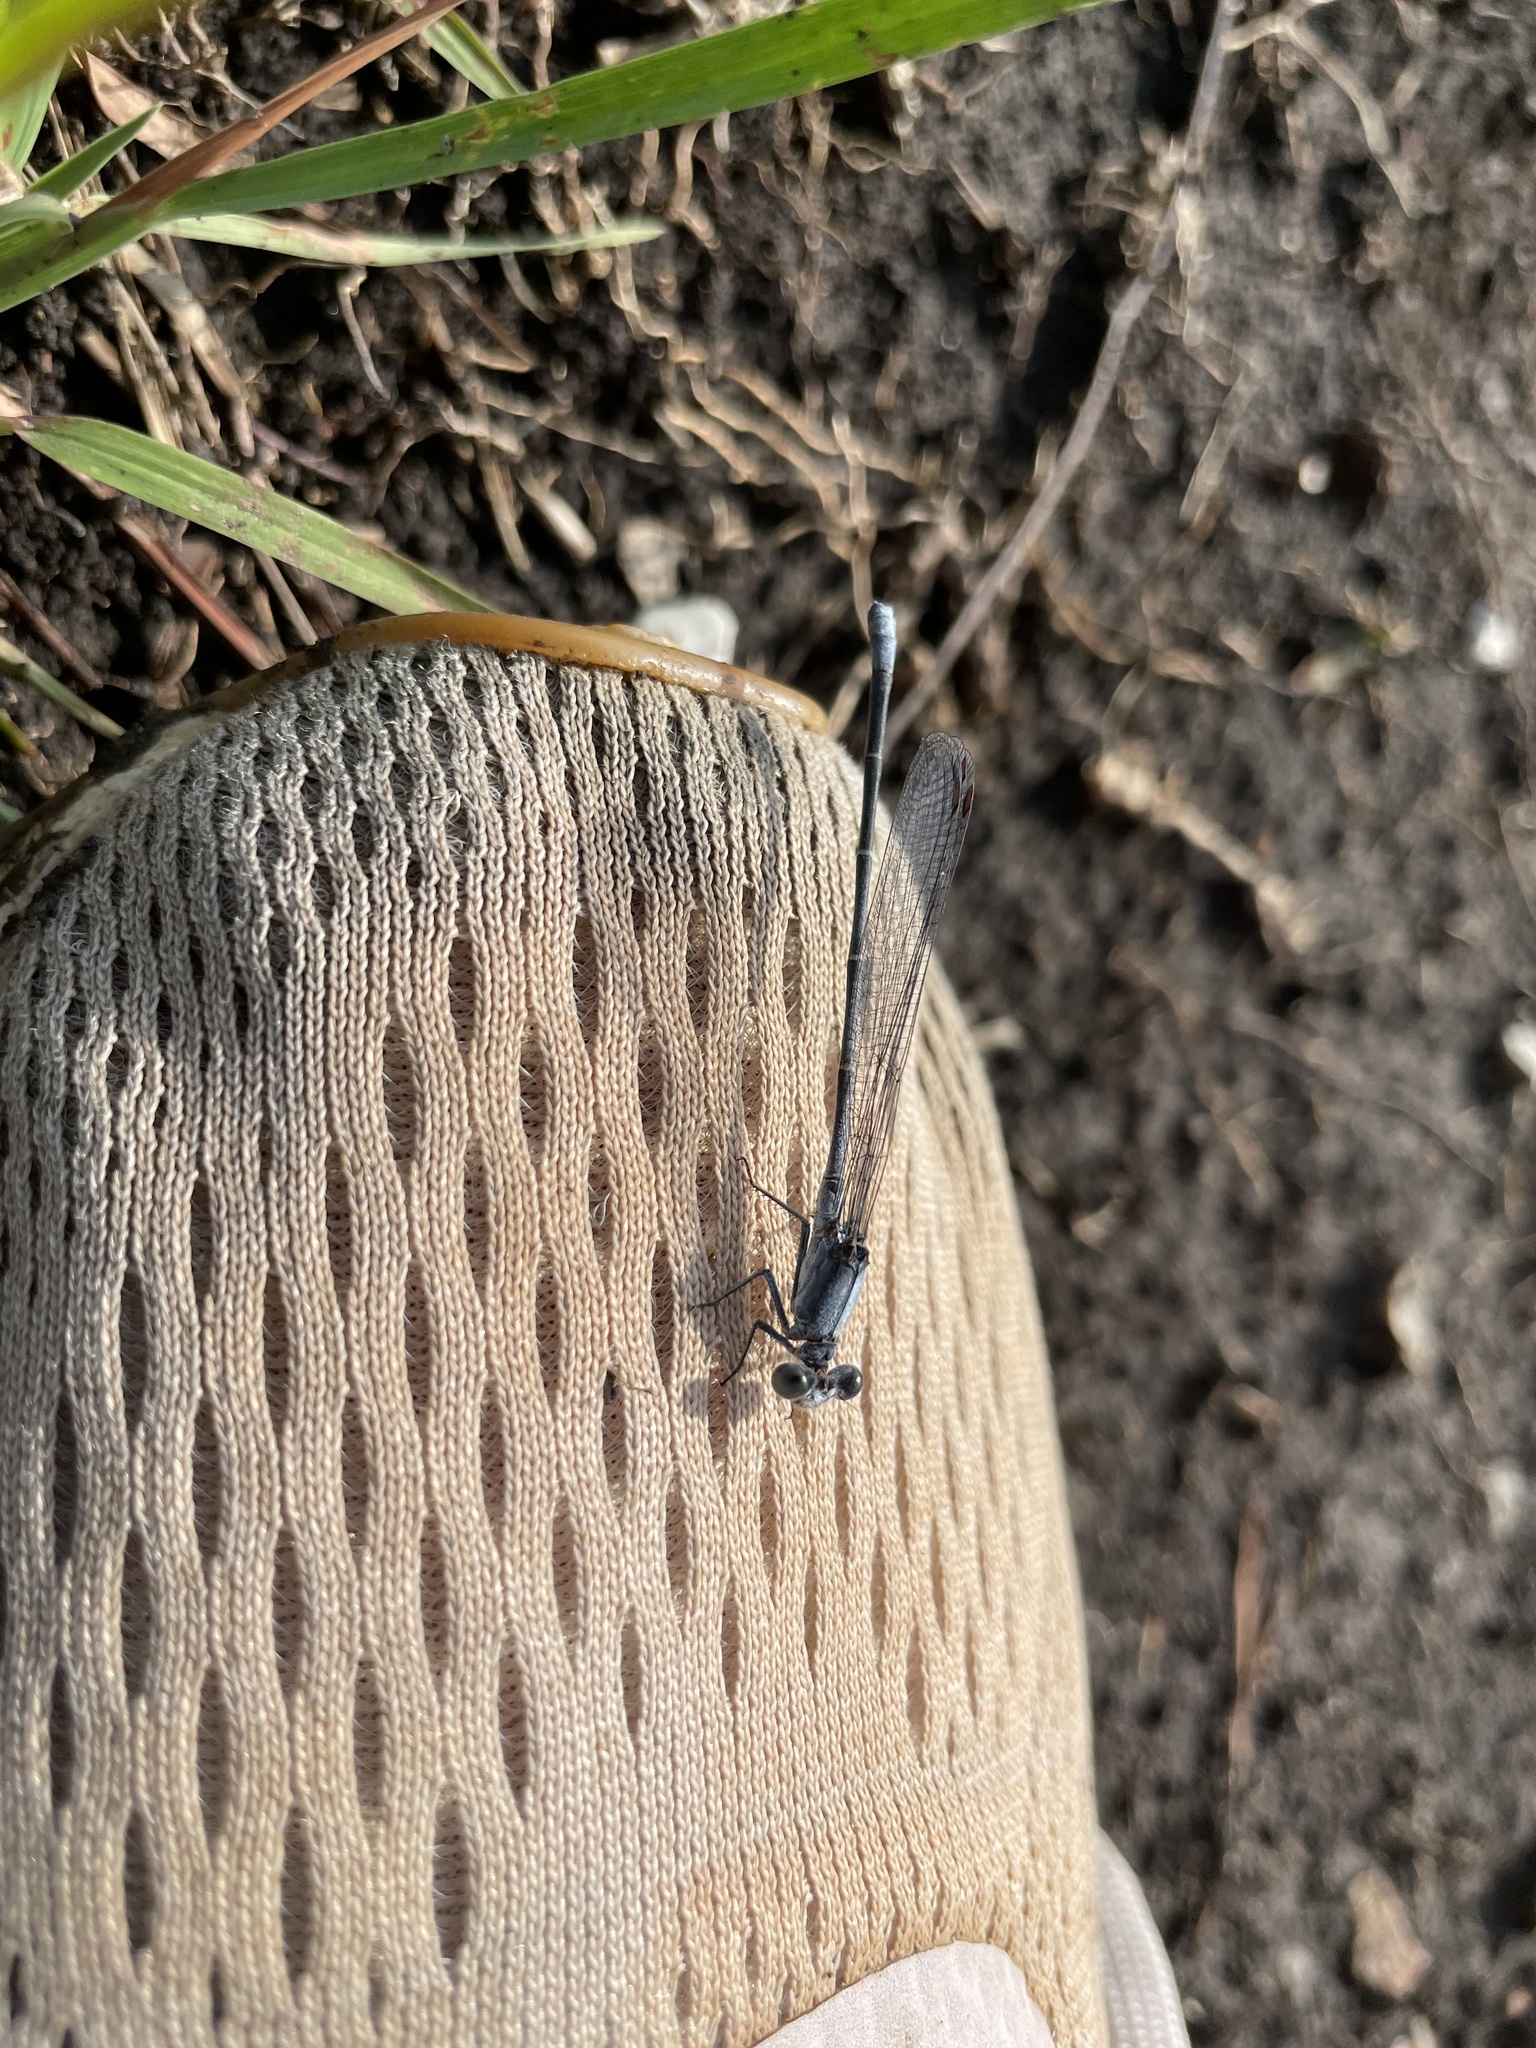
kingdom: Animalia
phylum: Arthropoda
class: Insecta
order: Odonata
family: Coenagrionidae
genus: Argia
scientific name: Argia moesta
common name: Powdered dancer
